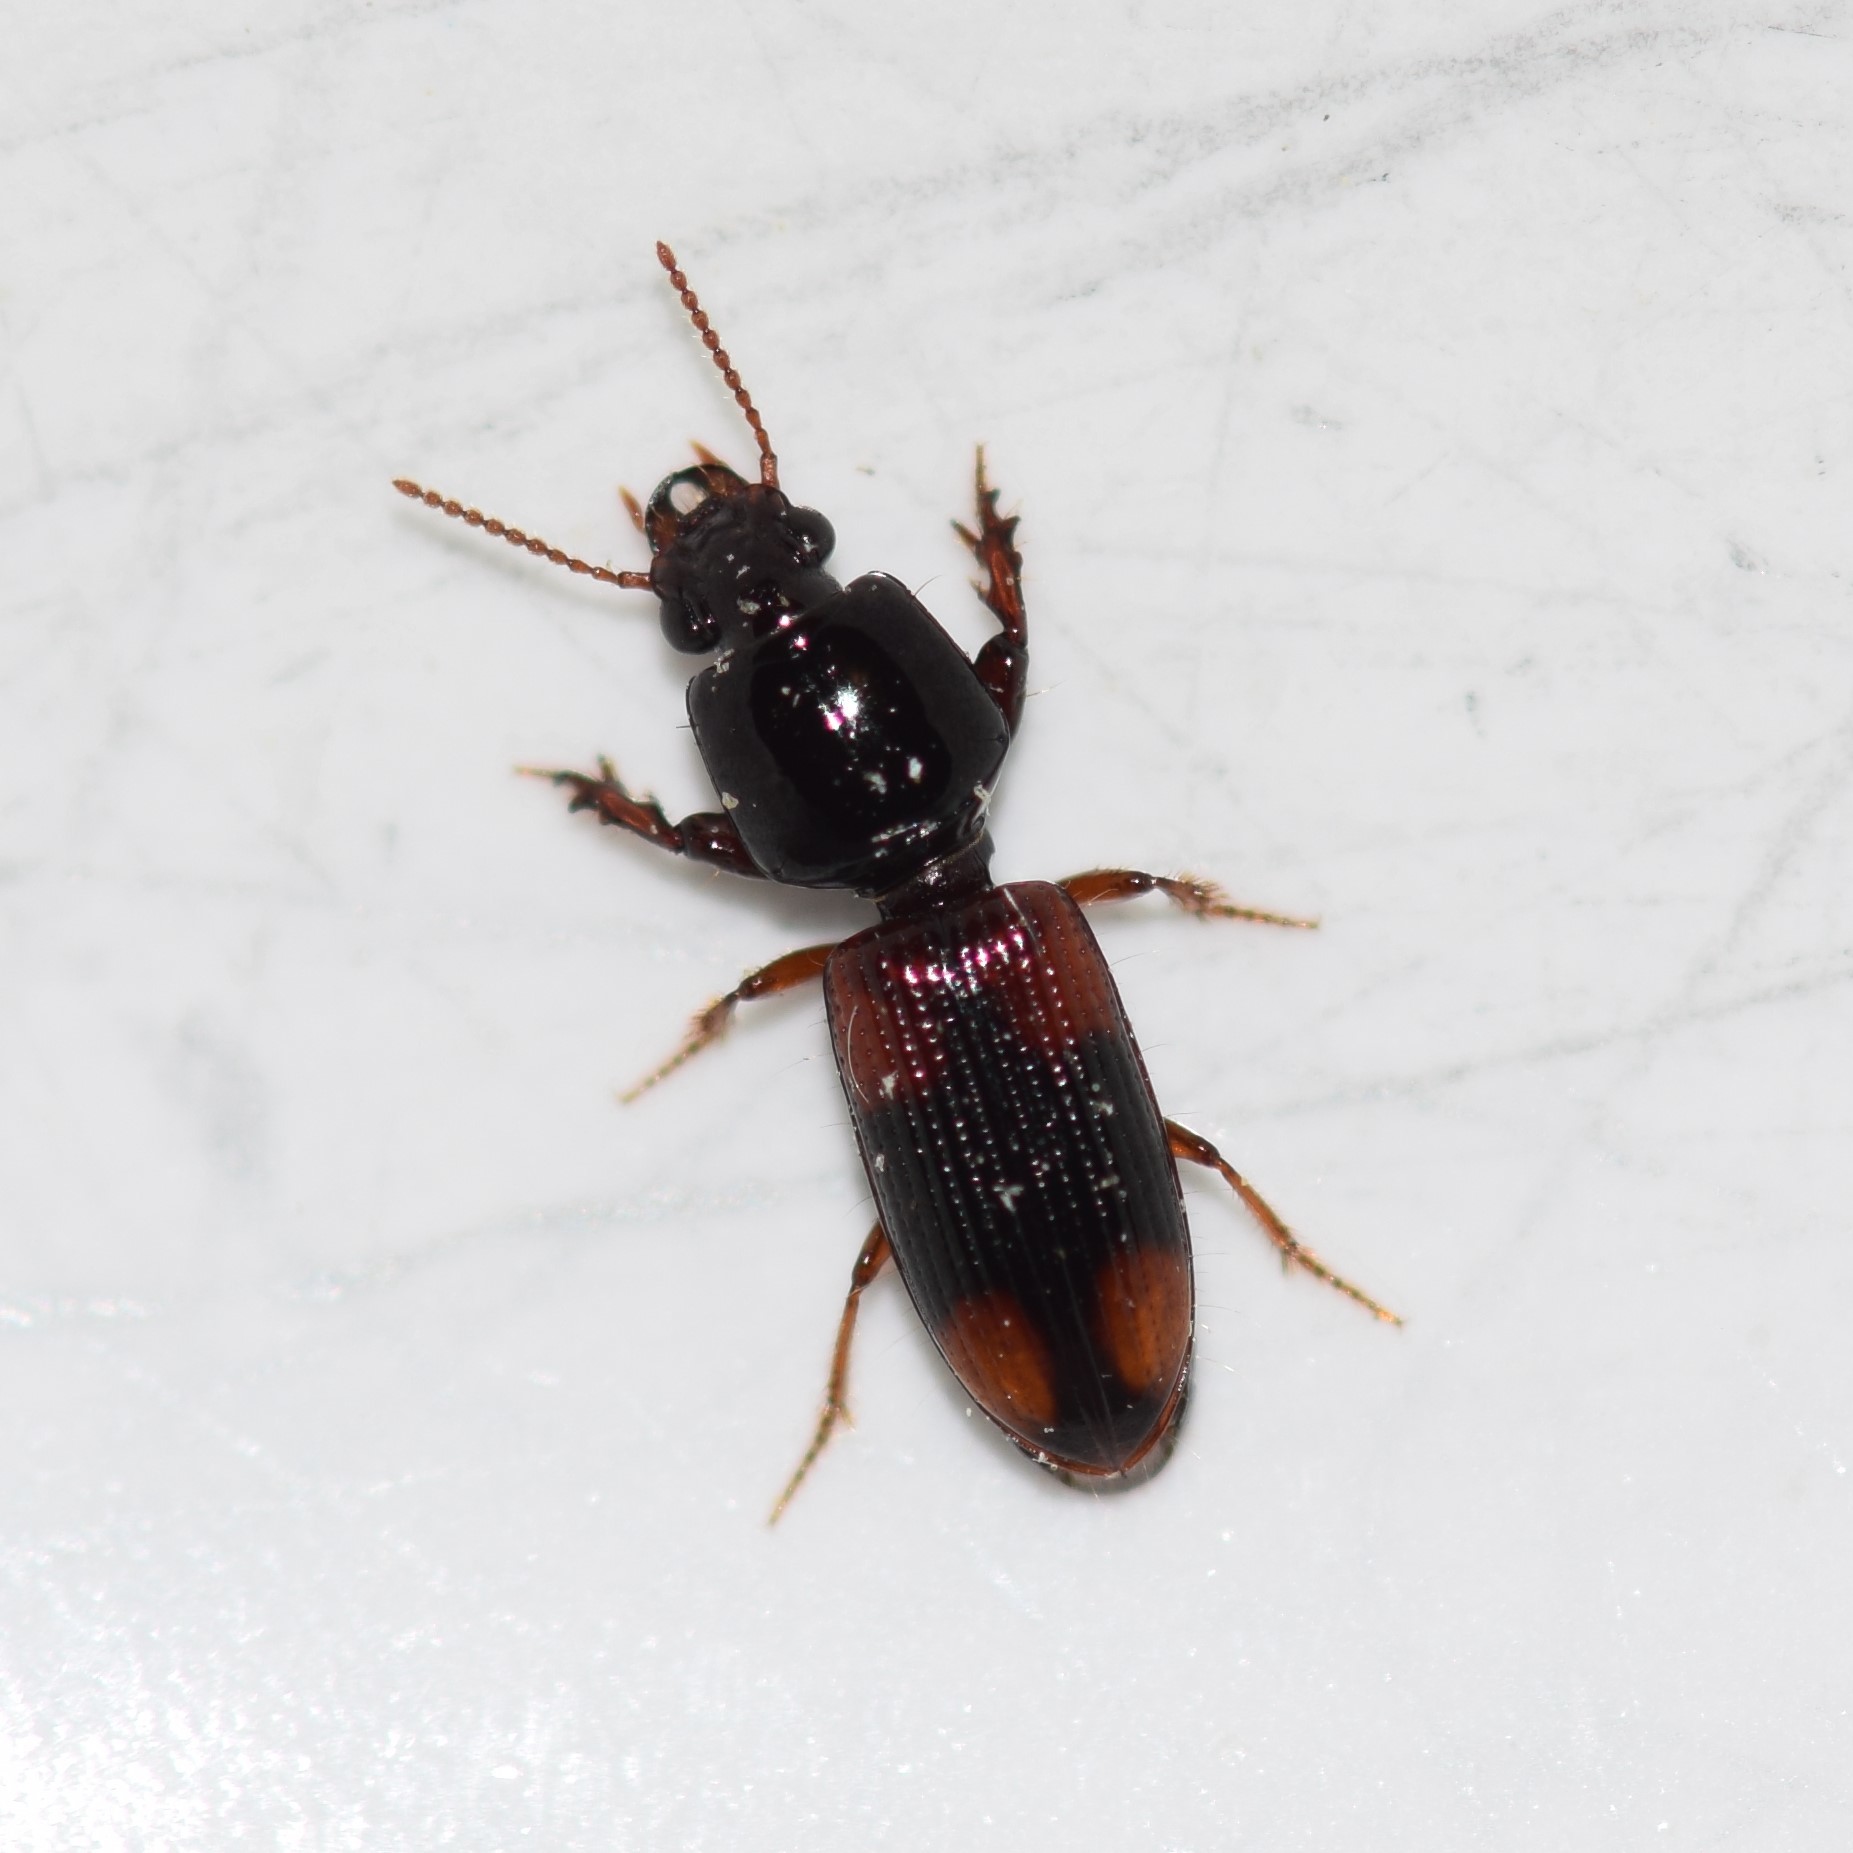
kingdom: Animalia
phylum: Arthropoda
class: Insecta
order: Coleoptera
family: Carabidae
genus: Clivina
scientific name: Clivina bipustulata
